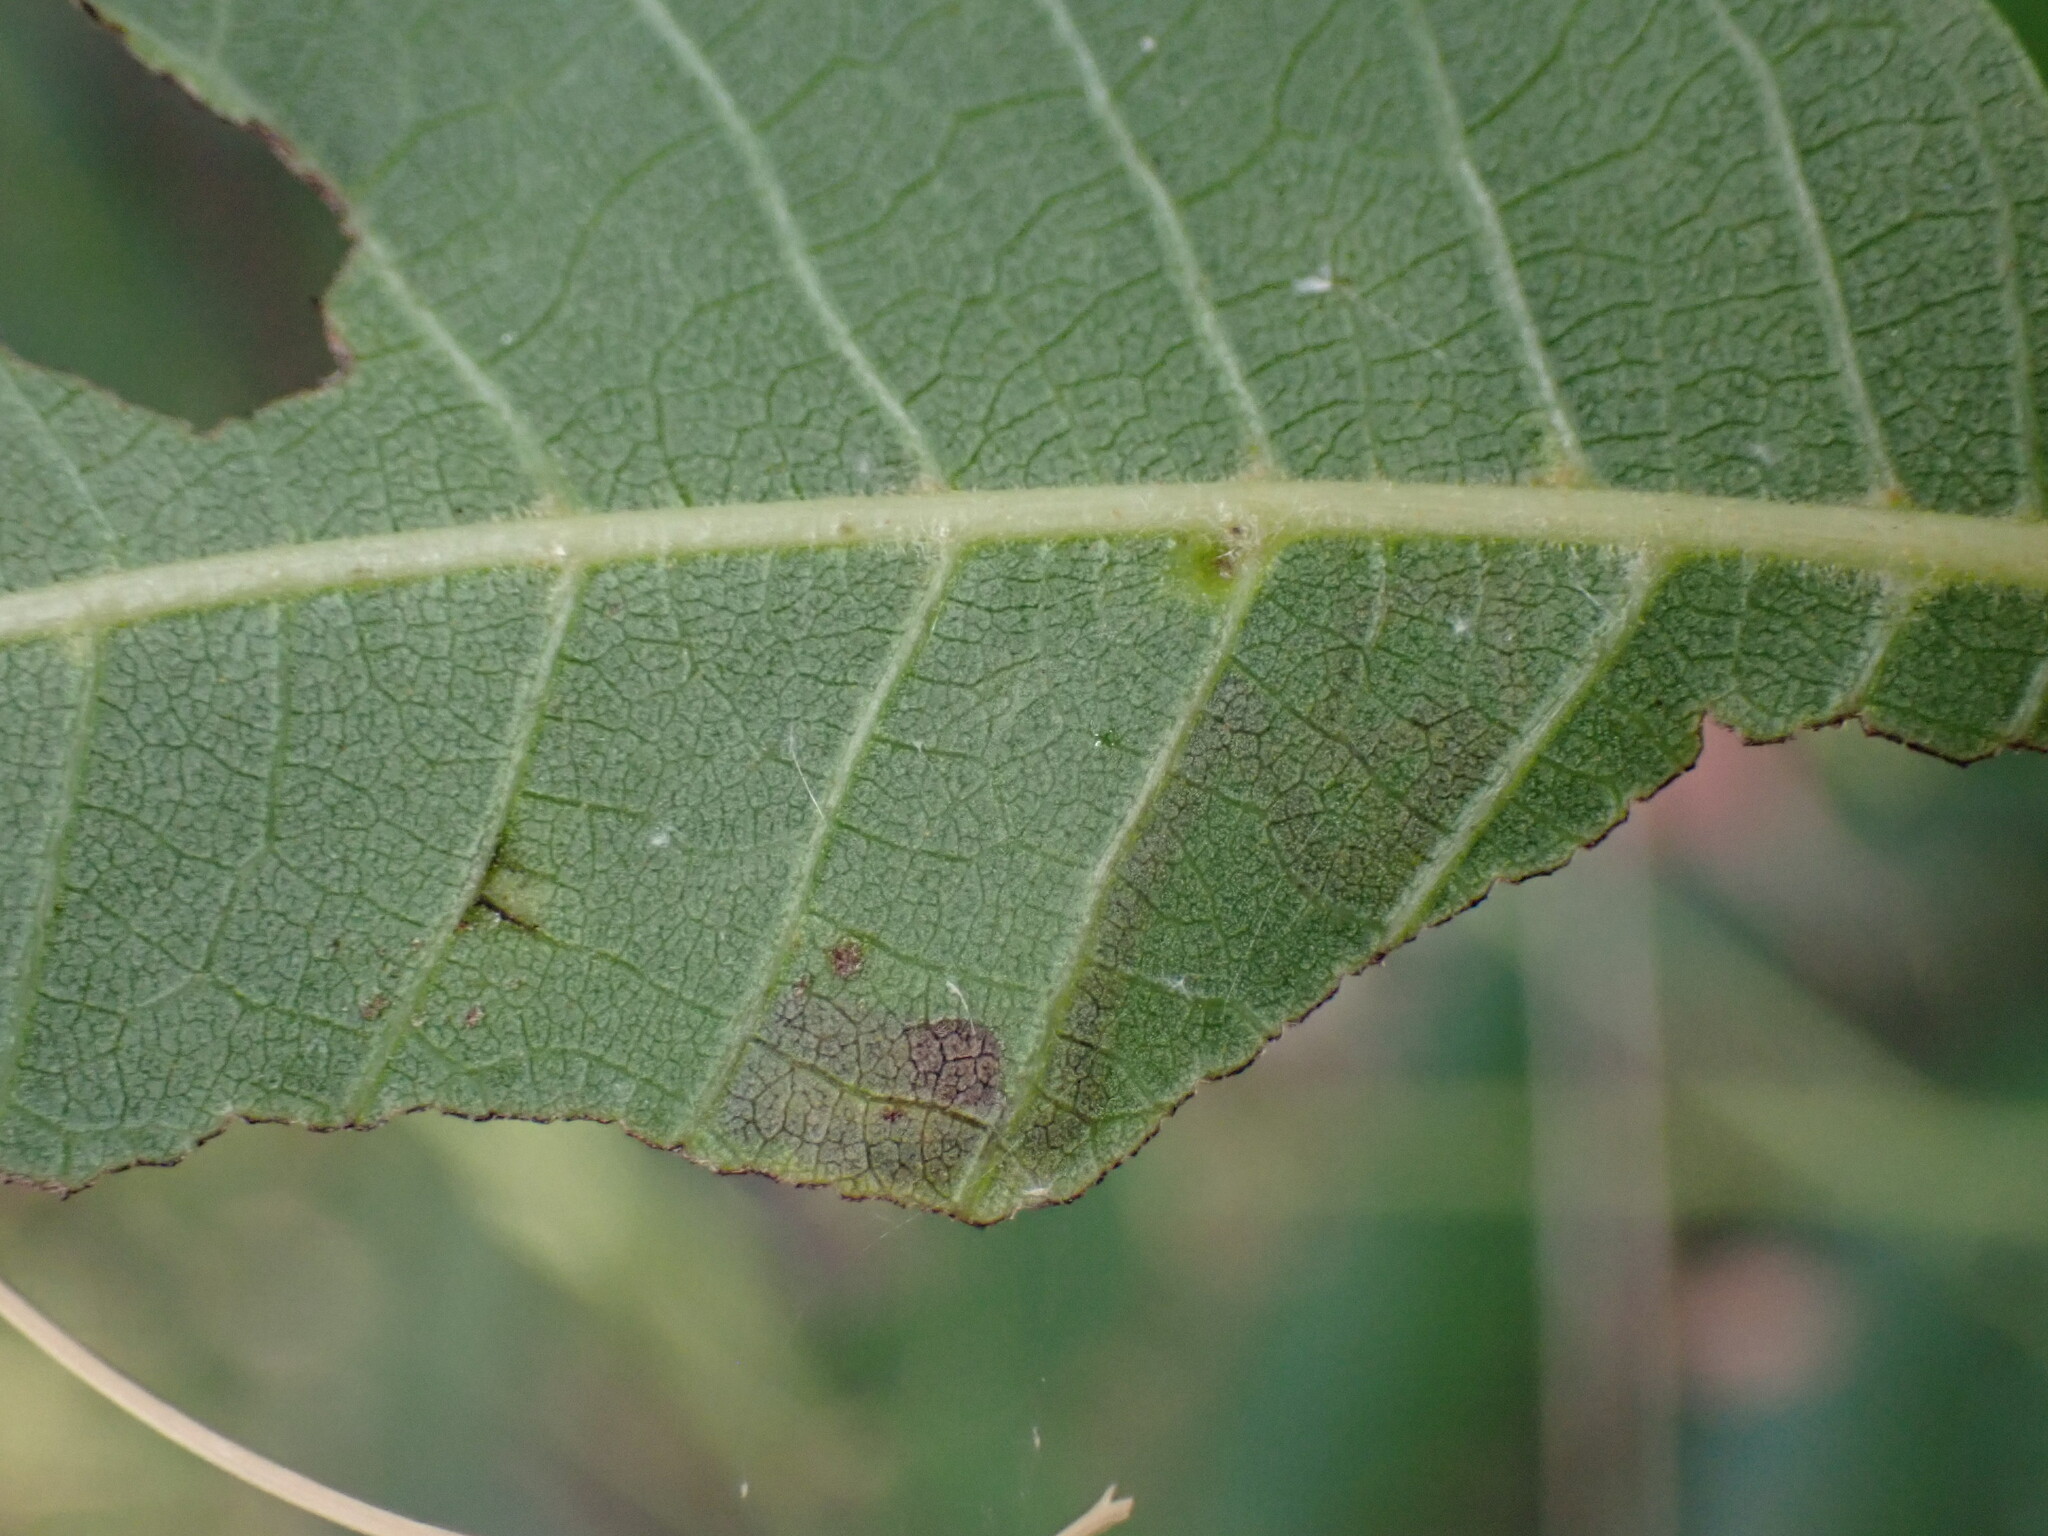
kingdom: Animalia
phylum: Arthropoda
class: Insecta
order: Lepidoptera
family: Nepticulidae
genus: Stigmella
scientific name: Stigmella longisacca
